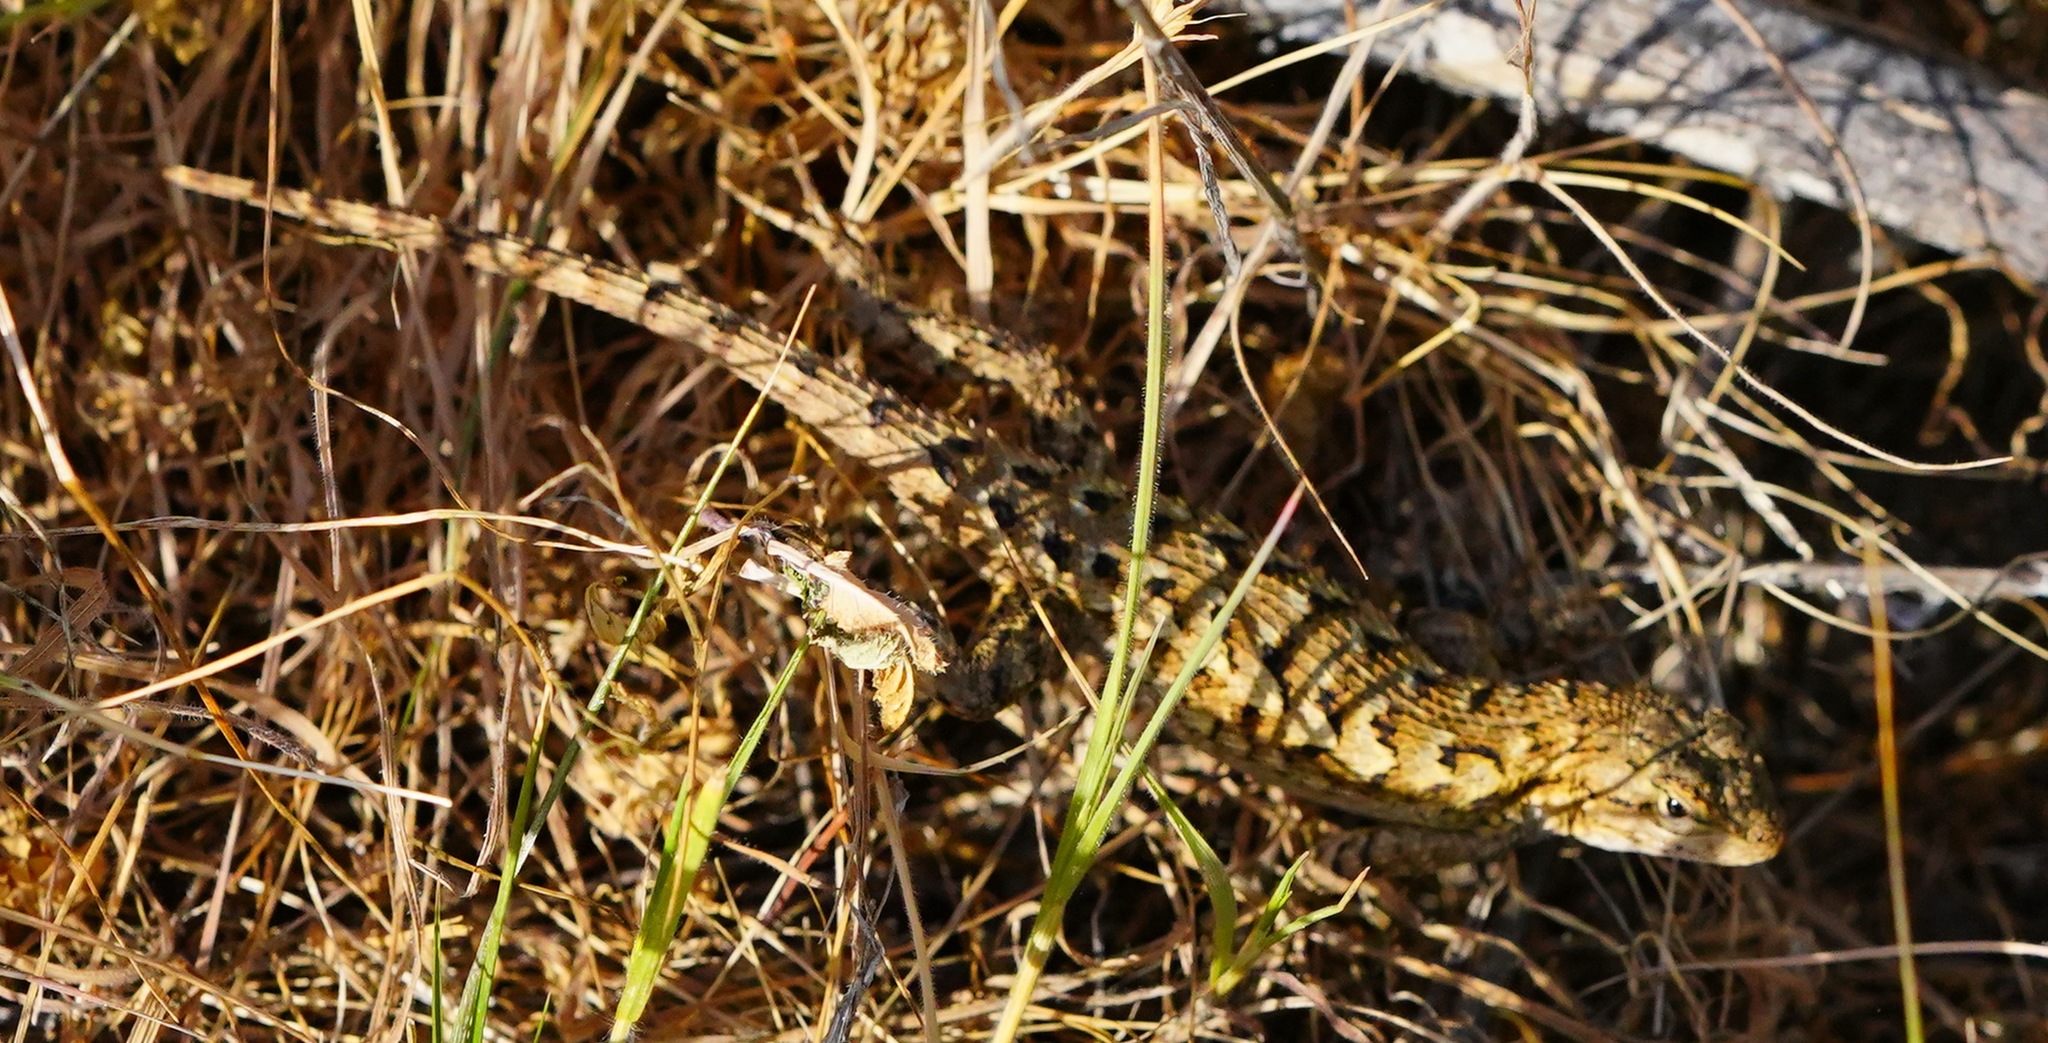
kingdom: Animalia
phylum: Chordata
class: Squamata
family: Phrynosomatidae
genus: Sceloporus
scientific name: Sceloporus occidentalis
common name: Western fence lizard
